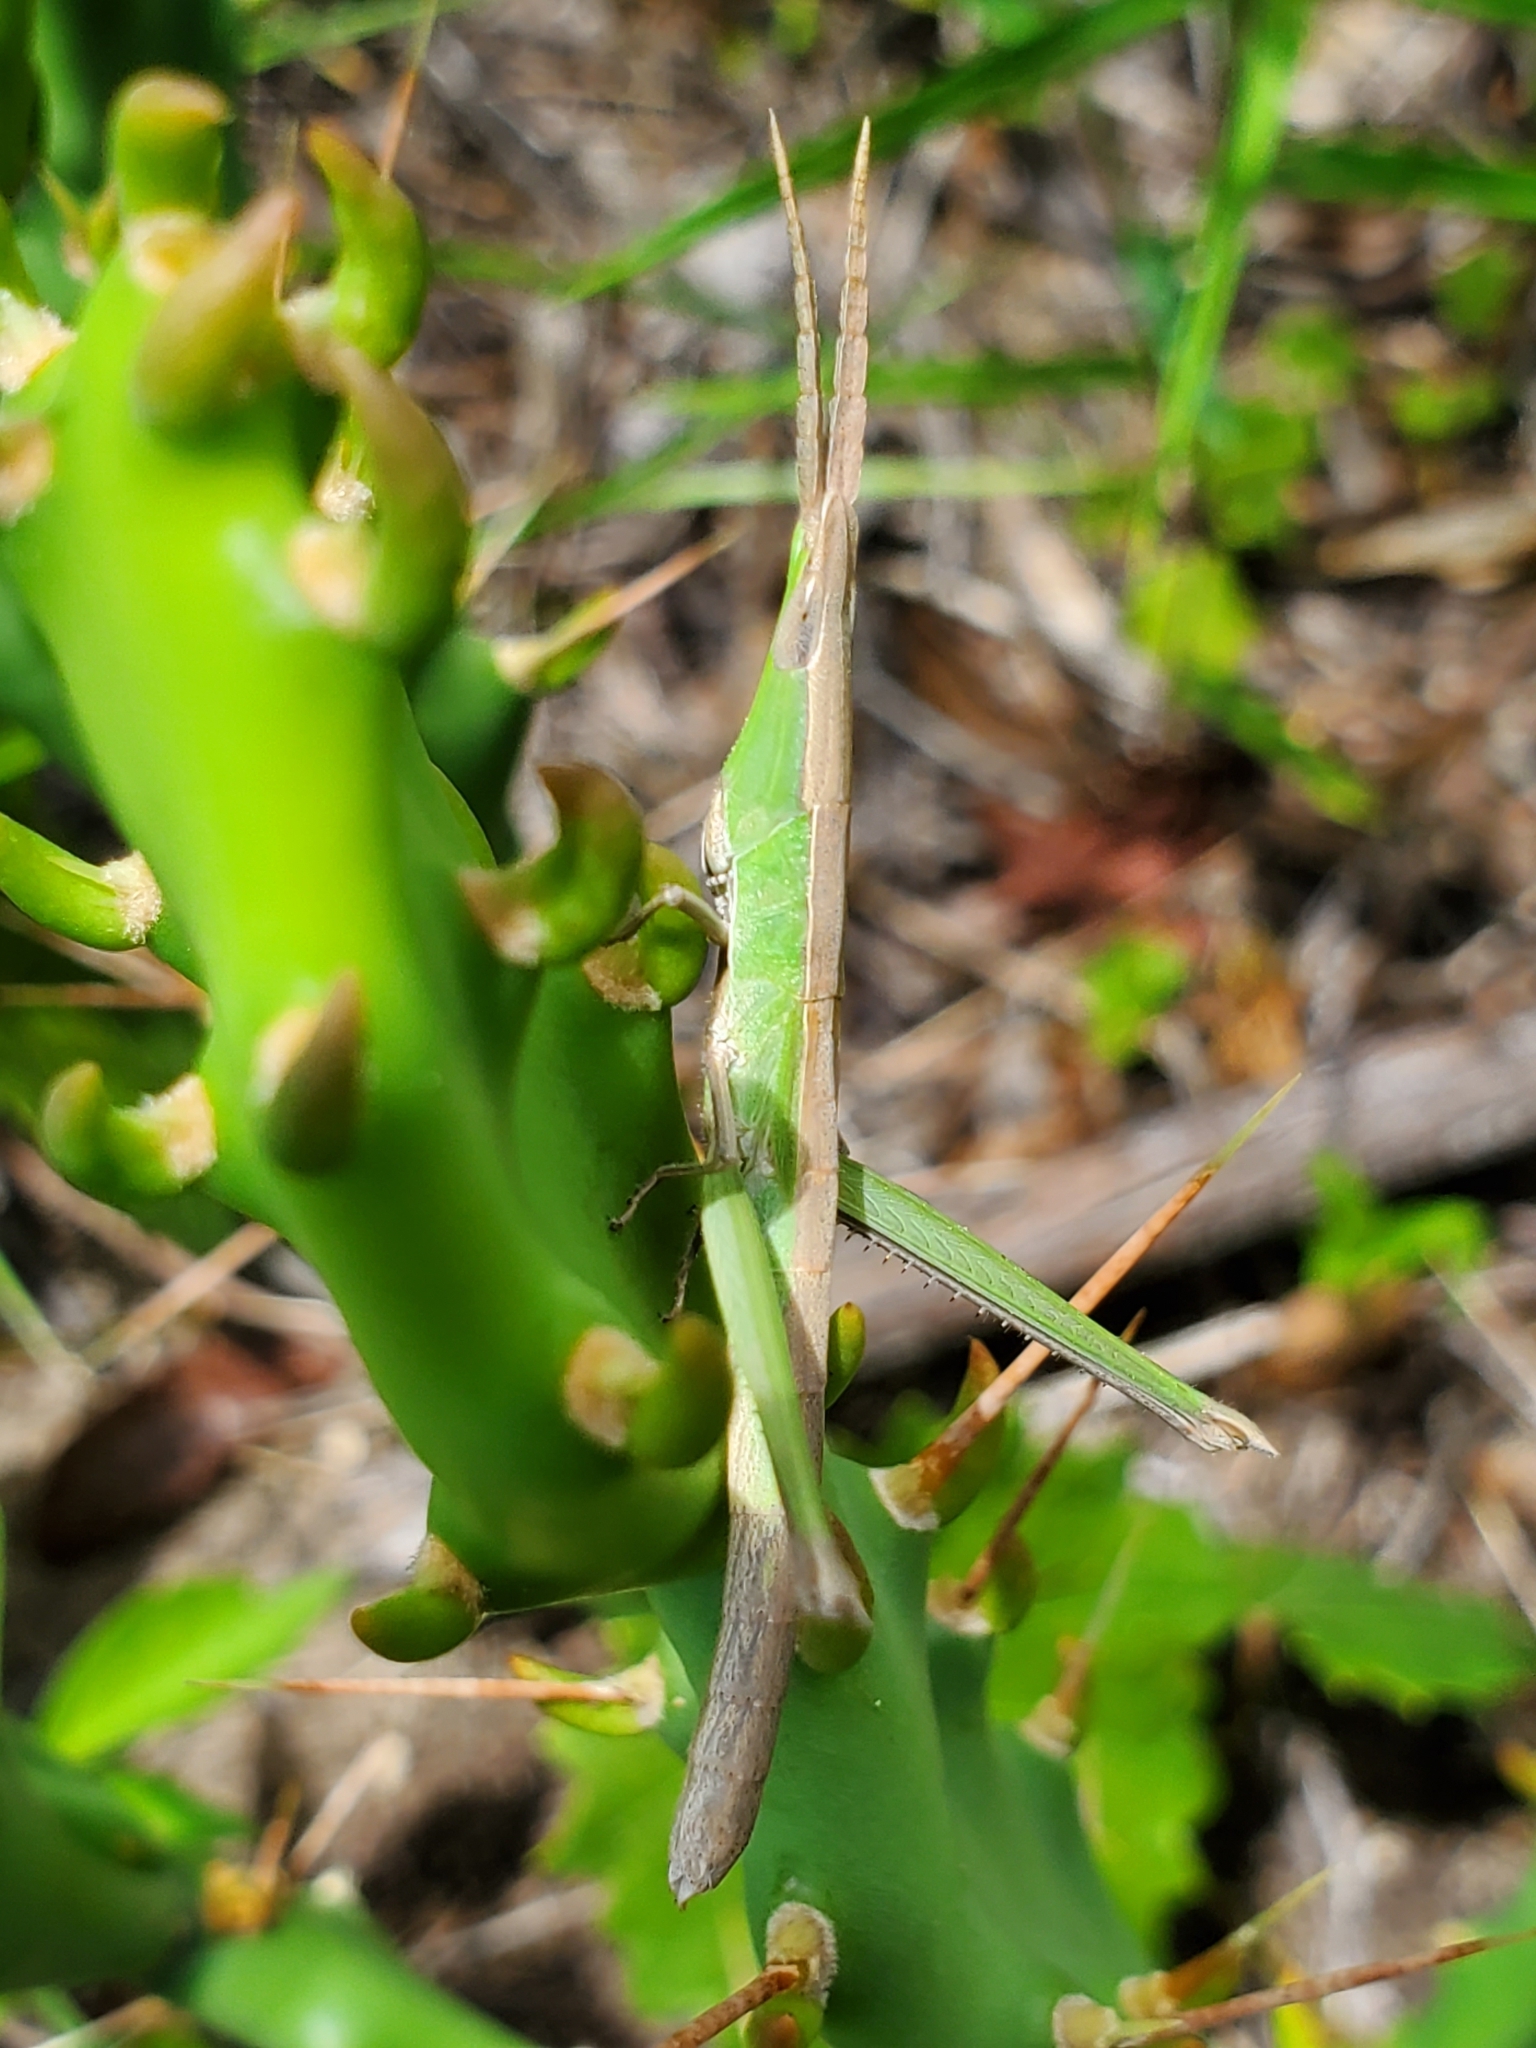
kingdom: Animalia
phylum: Arthropoda
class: Insecta
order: Orthoptera
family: Acrididae
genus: Achurum
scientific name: Achurum carinatum
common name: Long-headed toothpick grasshopper
